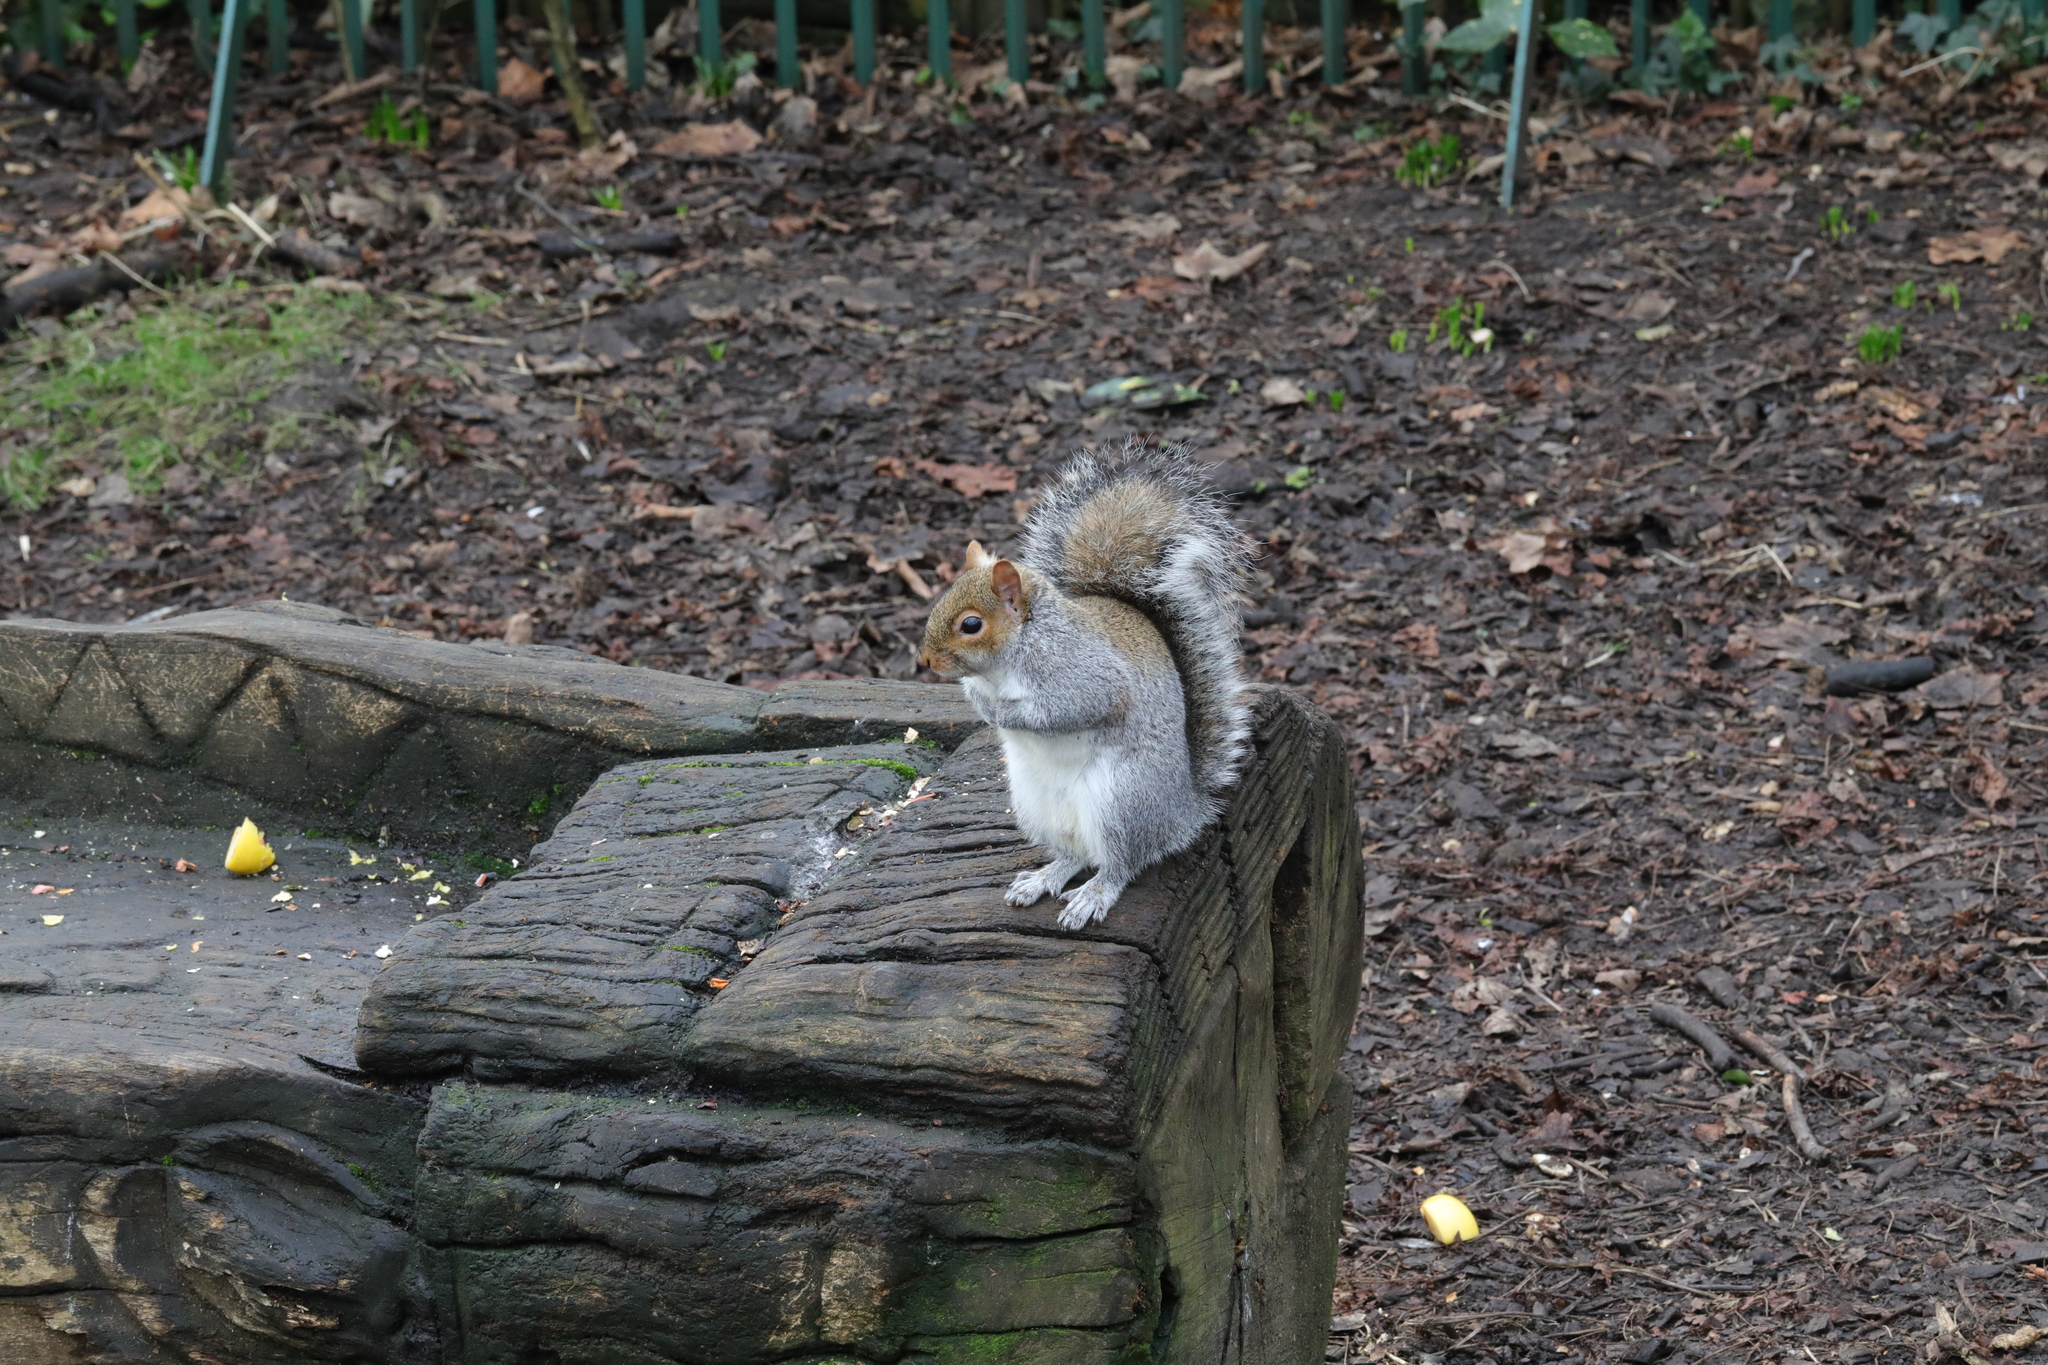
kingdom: Animalia
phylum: Chordata
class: Mammalia
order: Rodentia
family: Sciuridae
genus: Sciurus
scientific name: Sciurus carolinensis
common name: Eastern gray squirrel
